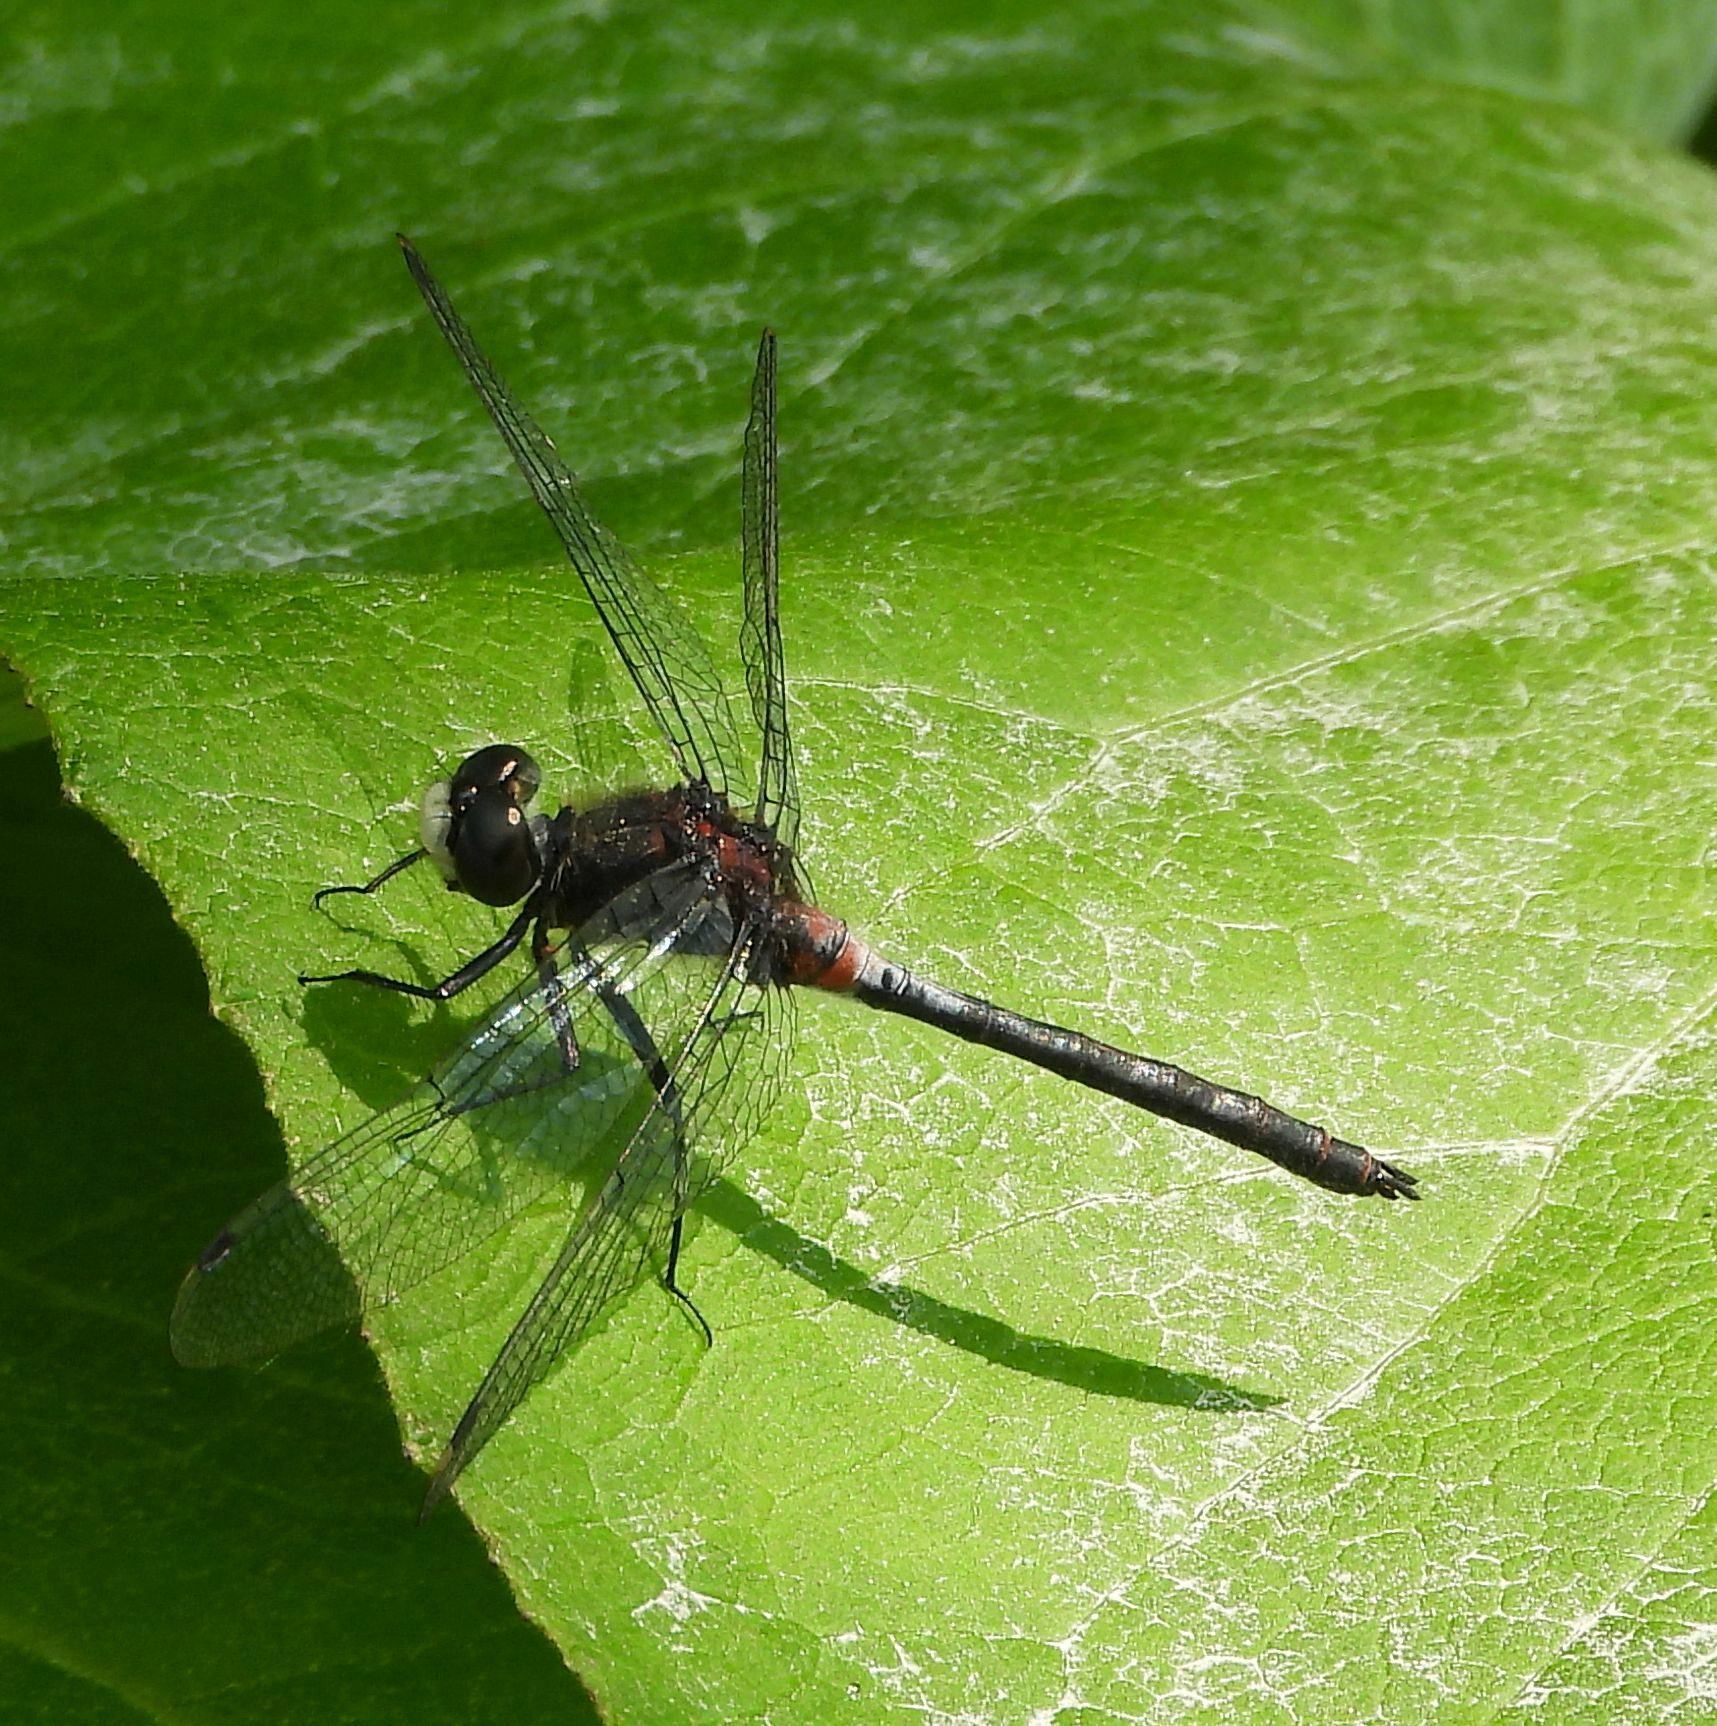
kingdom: Animalia
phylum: Arthropoda
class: Insecta
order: Odonata
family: Libellulidae
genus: Leucorrhinia
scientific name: Leucorrhinia proxima
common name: Belted whiteface
